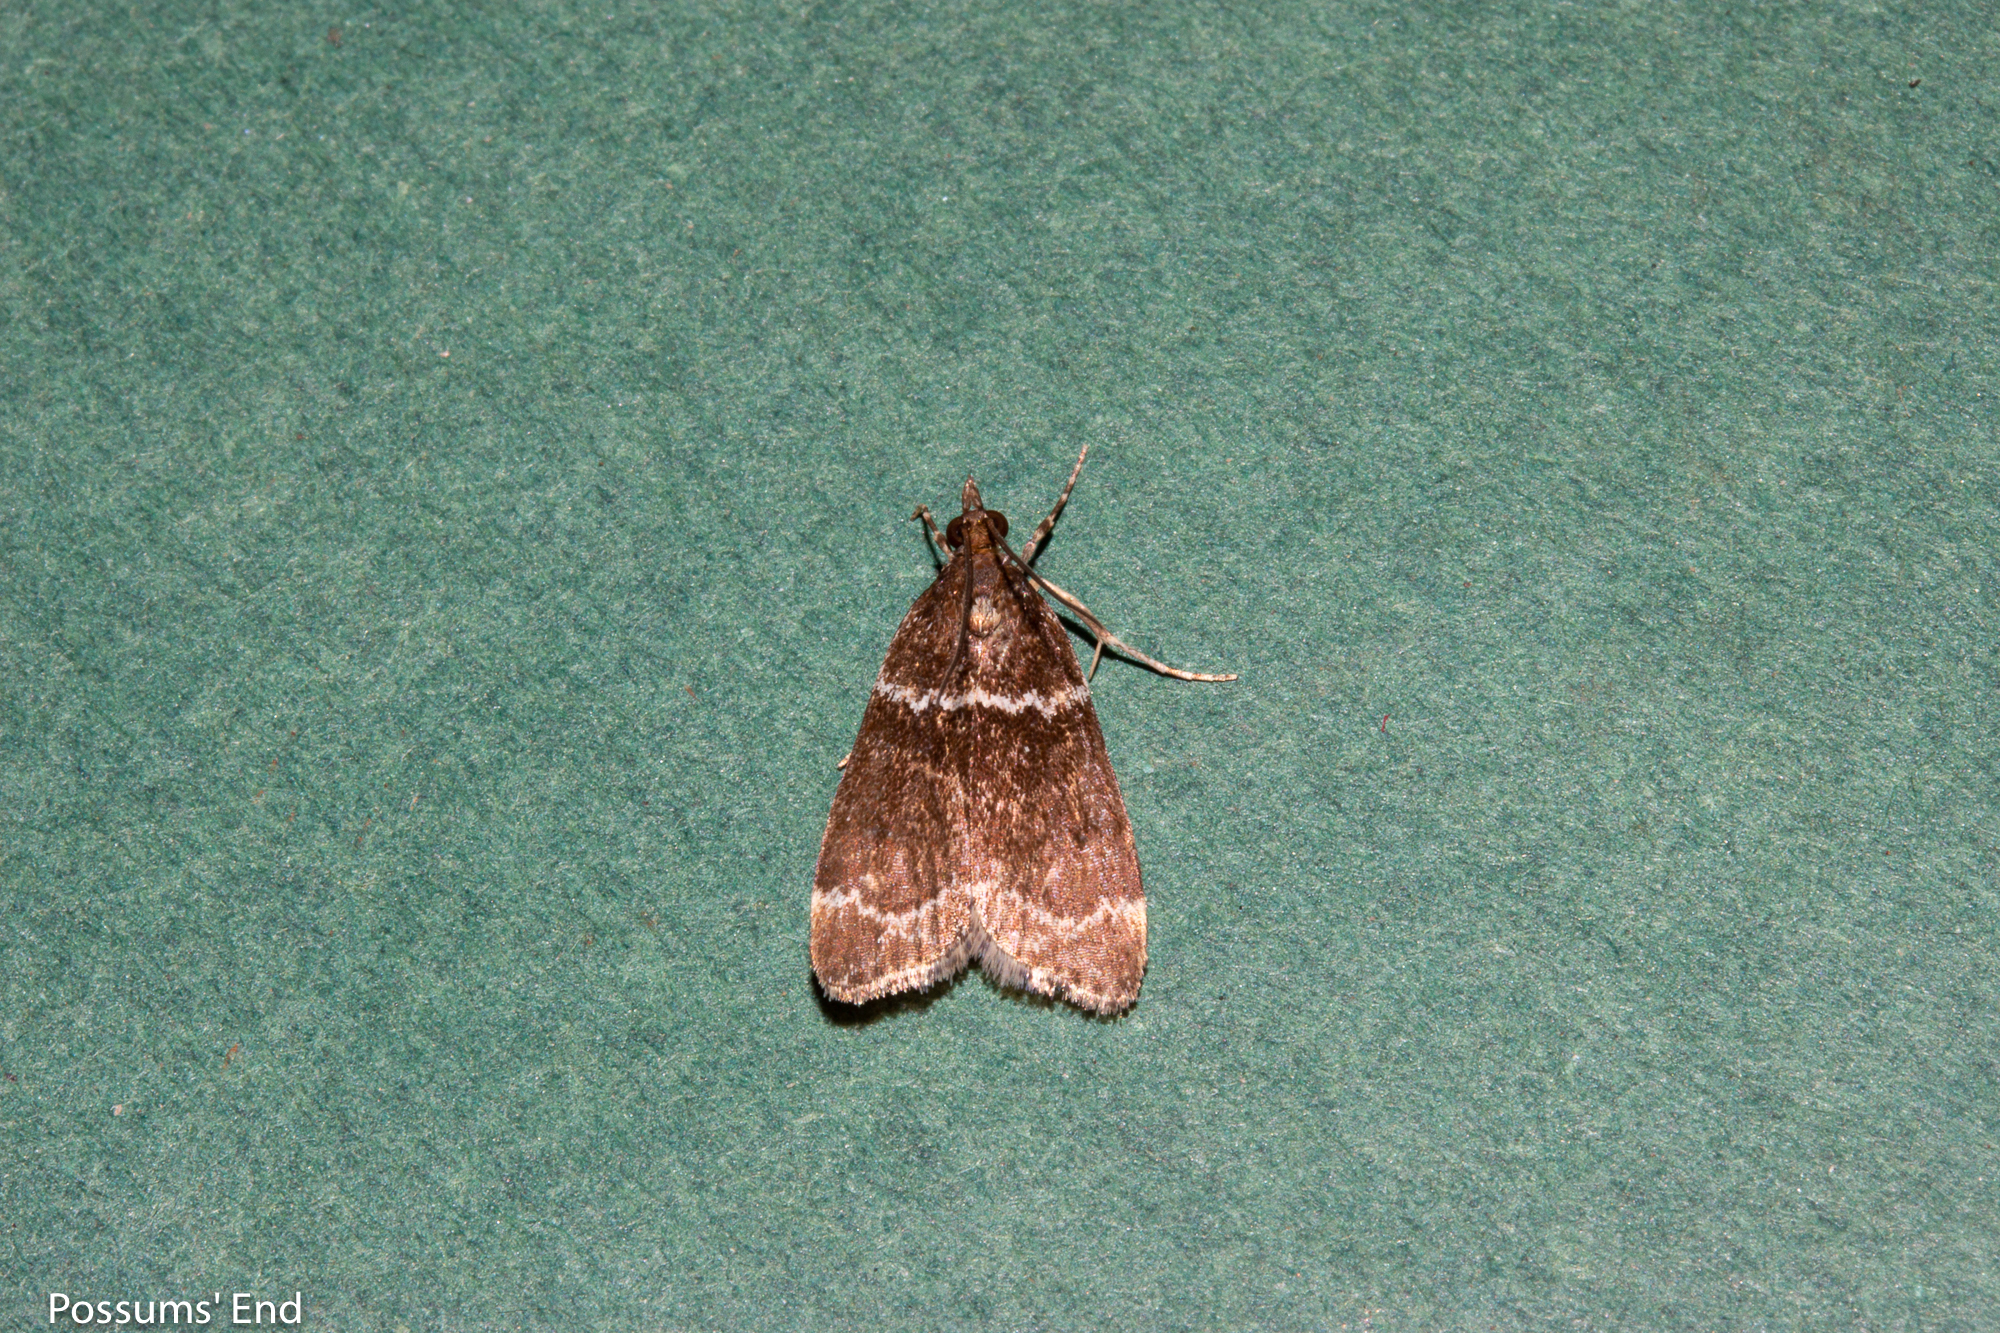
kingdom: Animalia
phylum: Arthropoda
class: Insecta
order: Lepidoptera
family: Crambidae
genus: Eudonia
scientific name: Eudonia leucogramma
